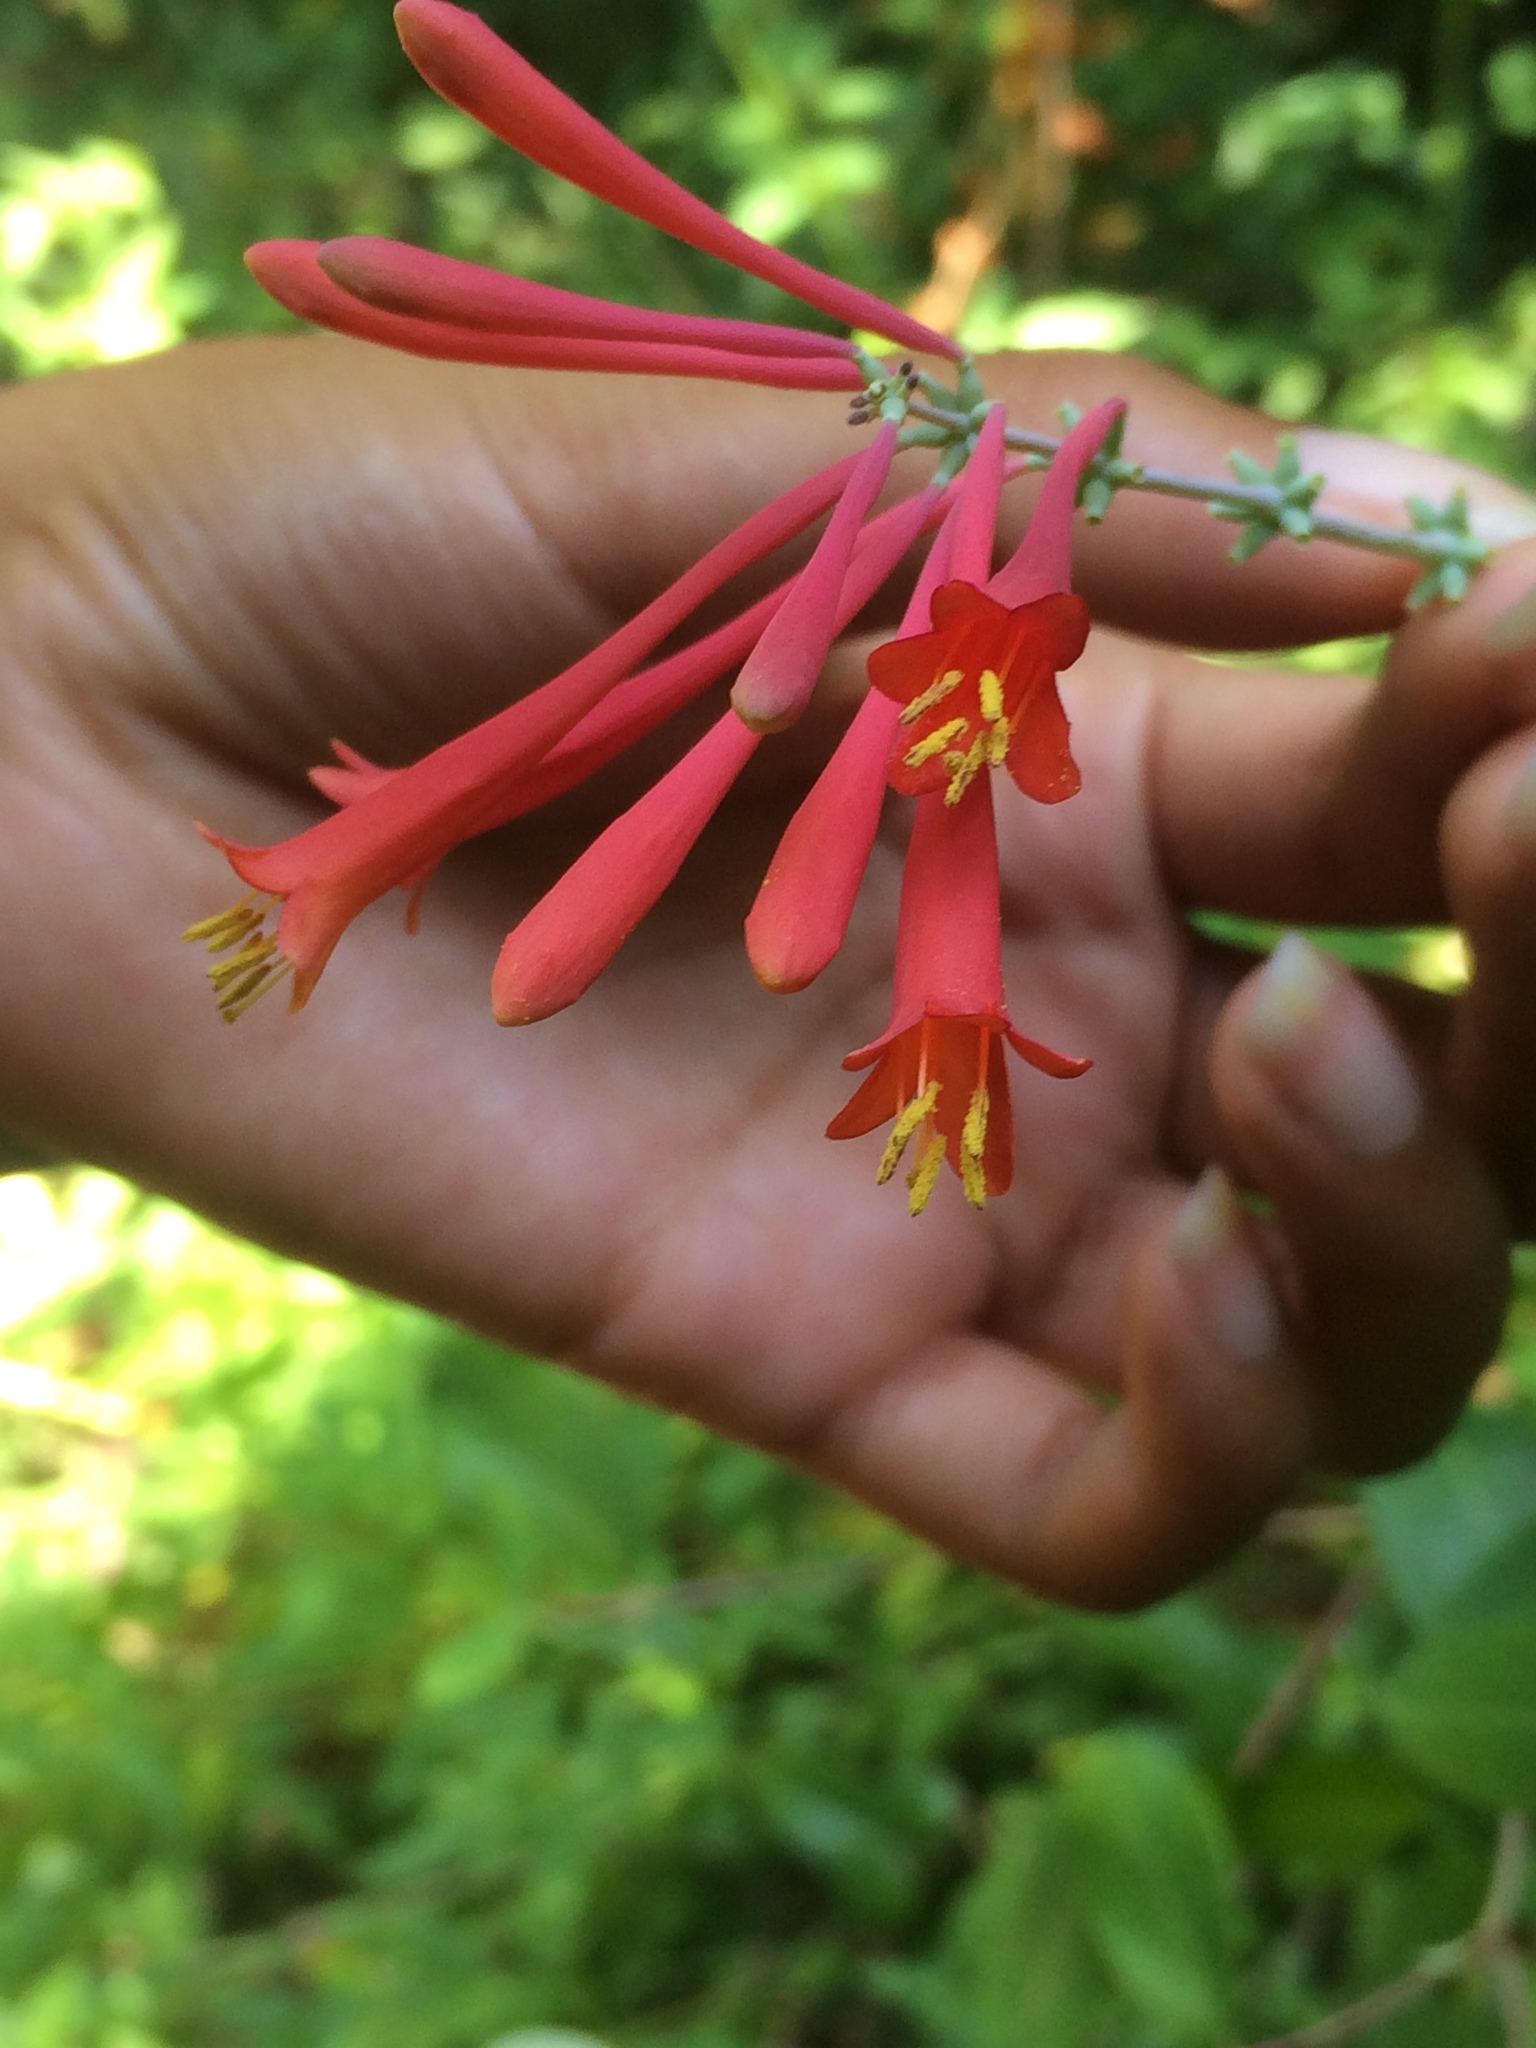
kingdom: Plantae
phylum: Tracheophyta
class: Magnoliopsida
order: Dipsacales
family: Caprifoliaceae
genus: Lonicera
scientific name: Lonicera sempervirens
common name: Coral honeysuckle
